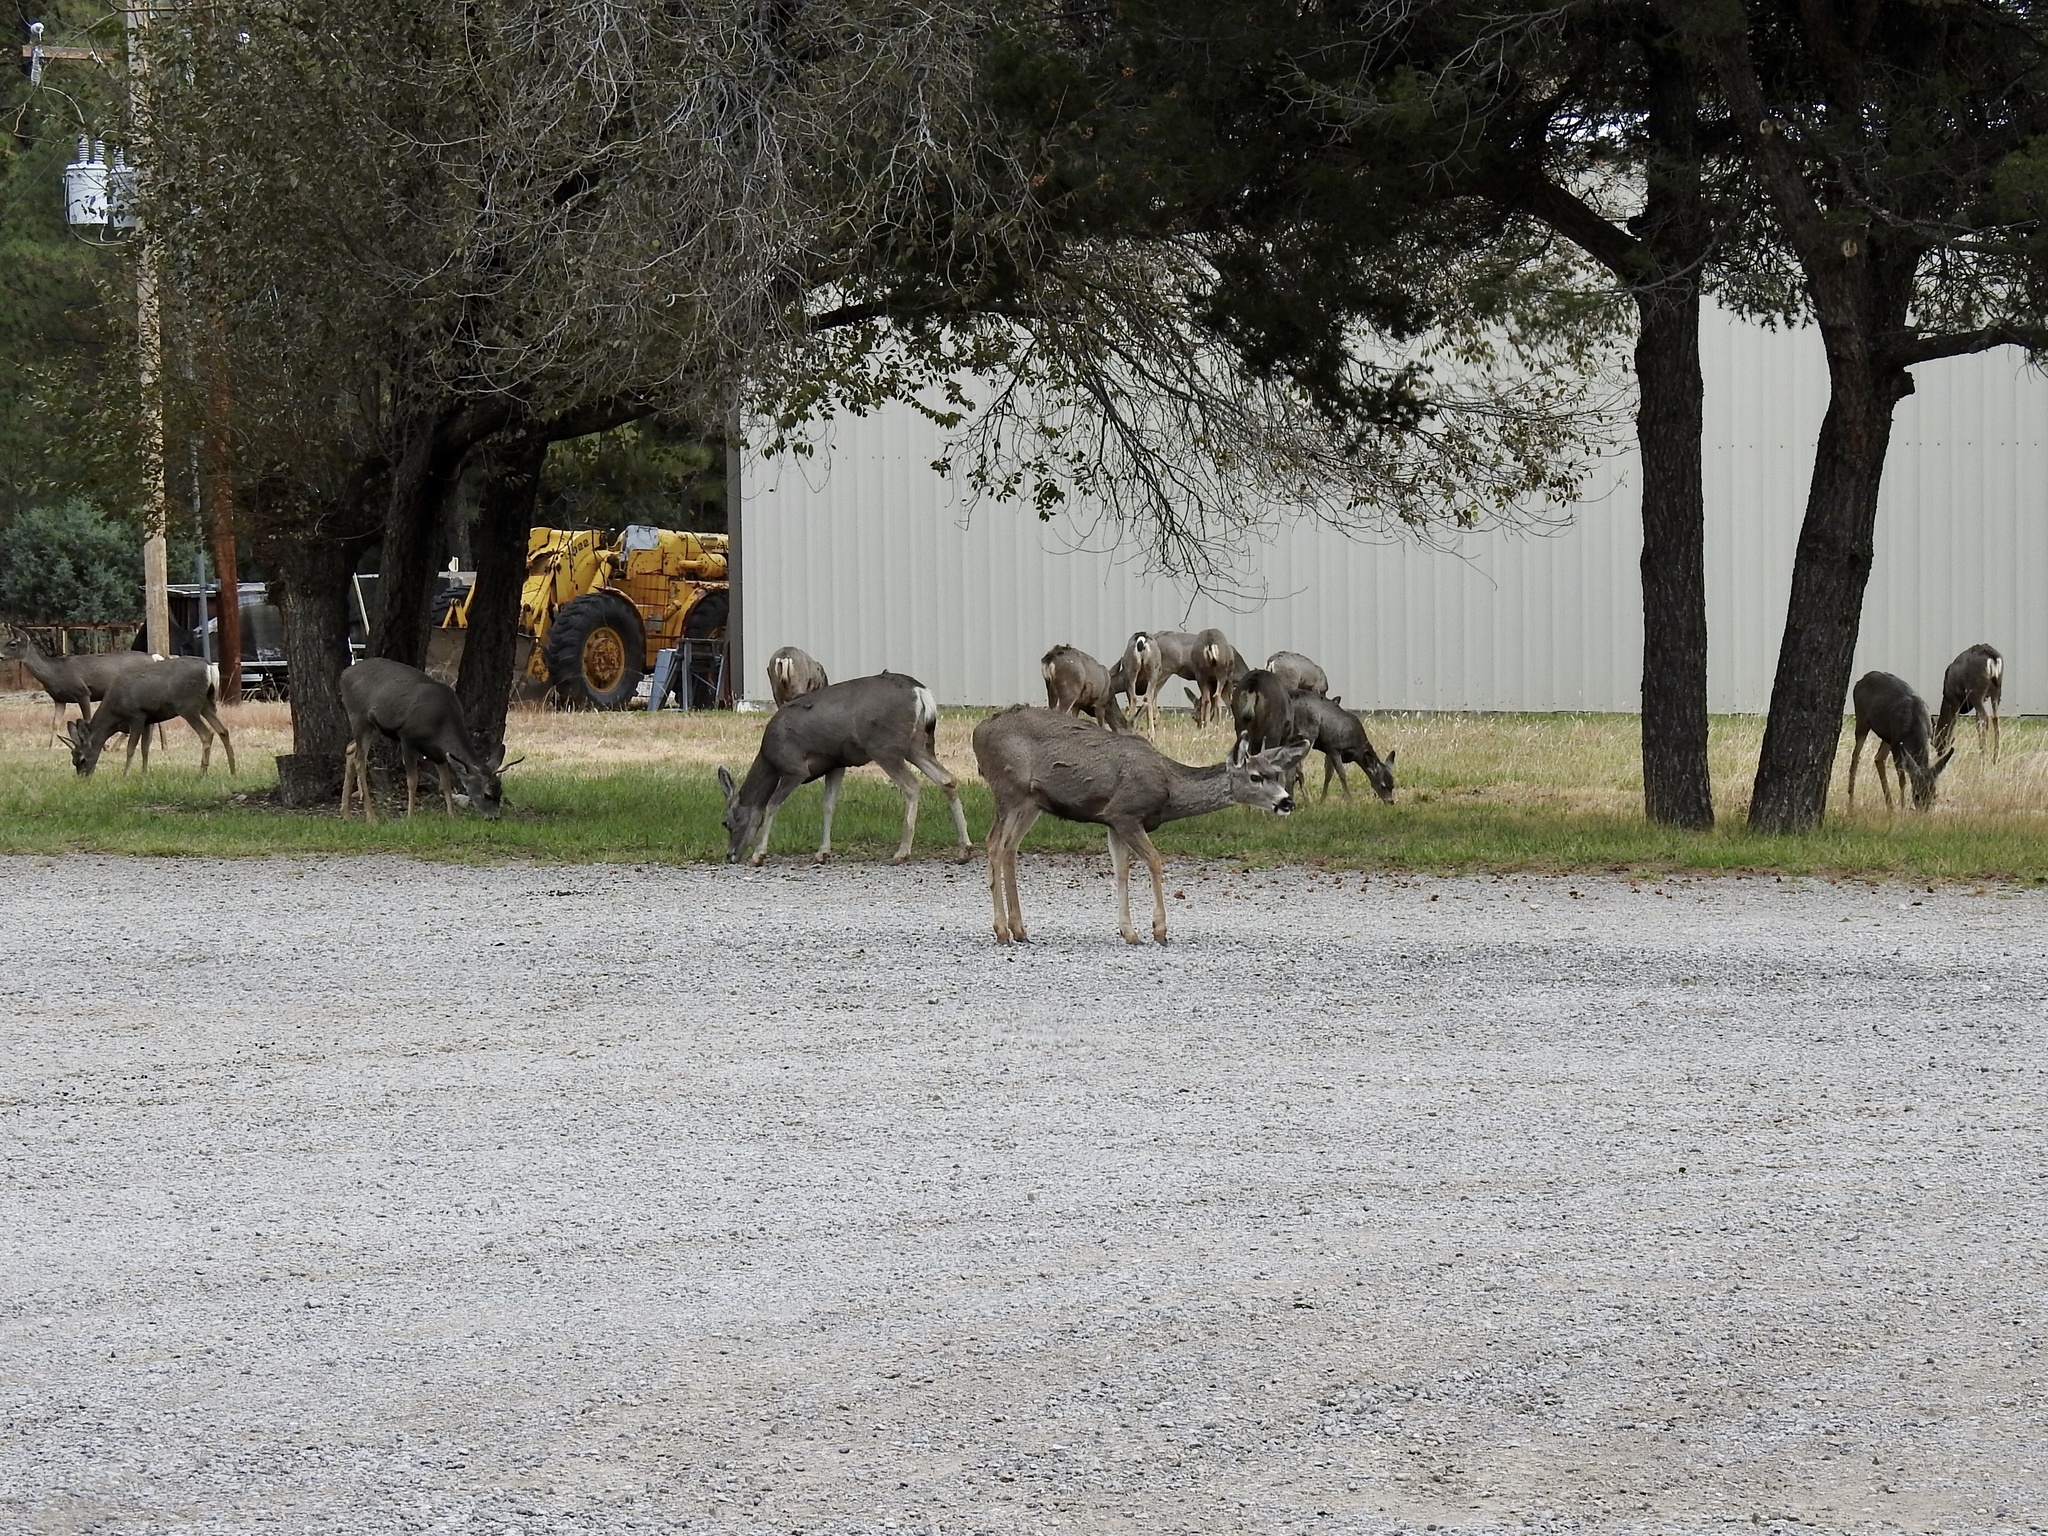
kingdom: Animalia
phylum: Chordata
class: Mammalia
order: Artiodactyla
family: Cervidae
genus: Odocoileus
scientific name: Odocoileus hemionus
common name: Mule deer
